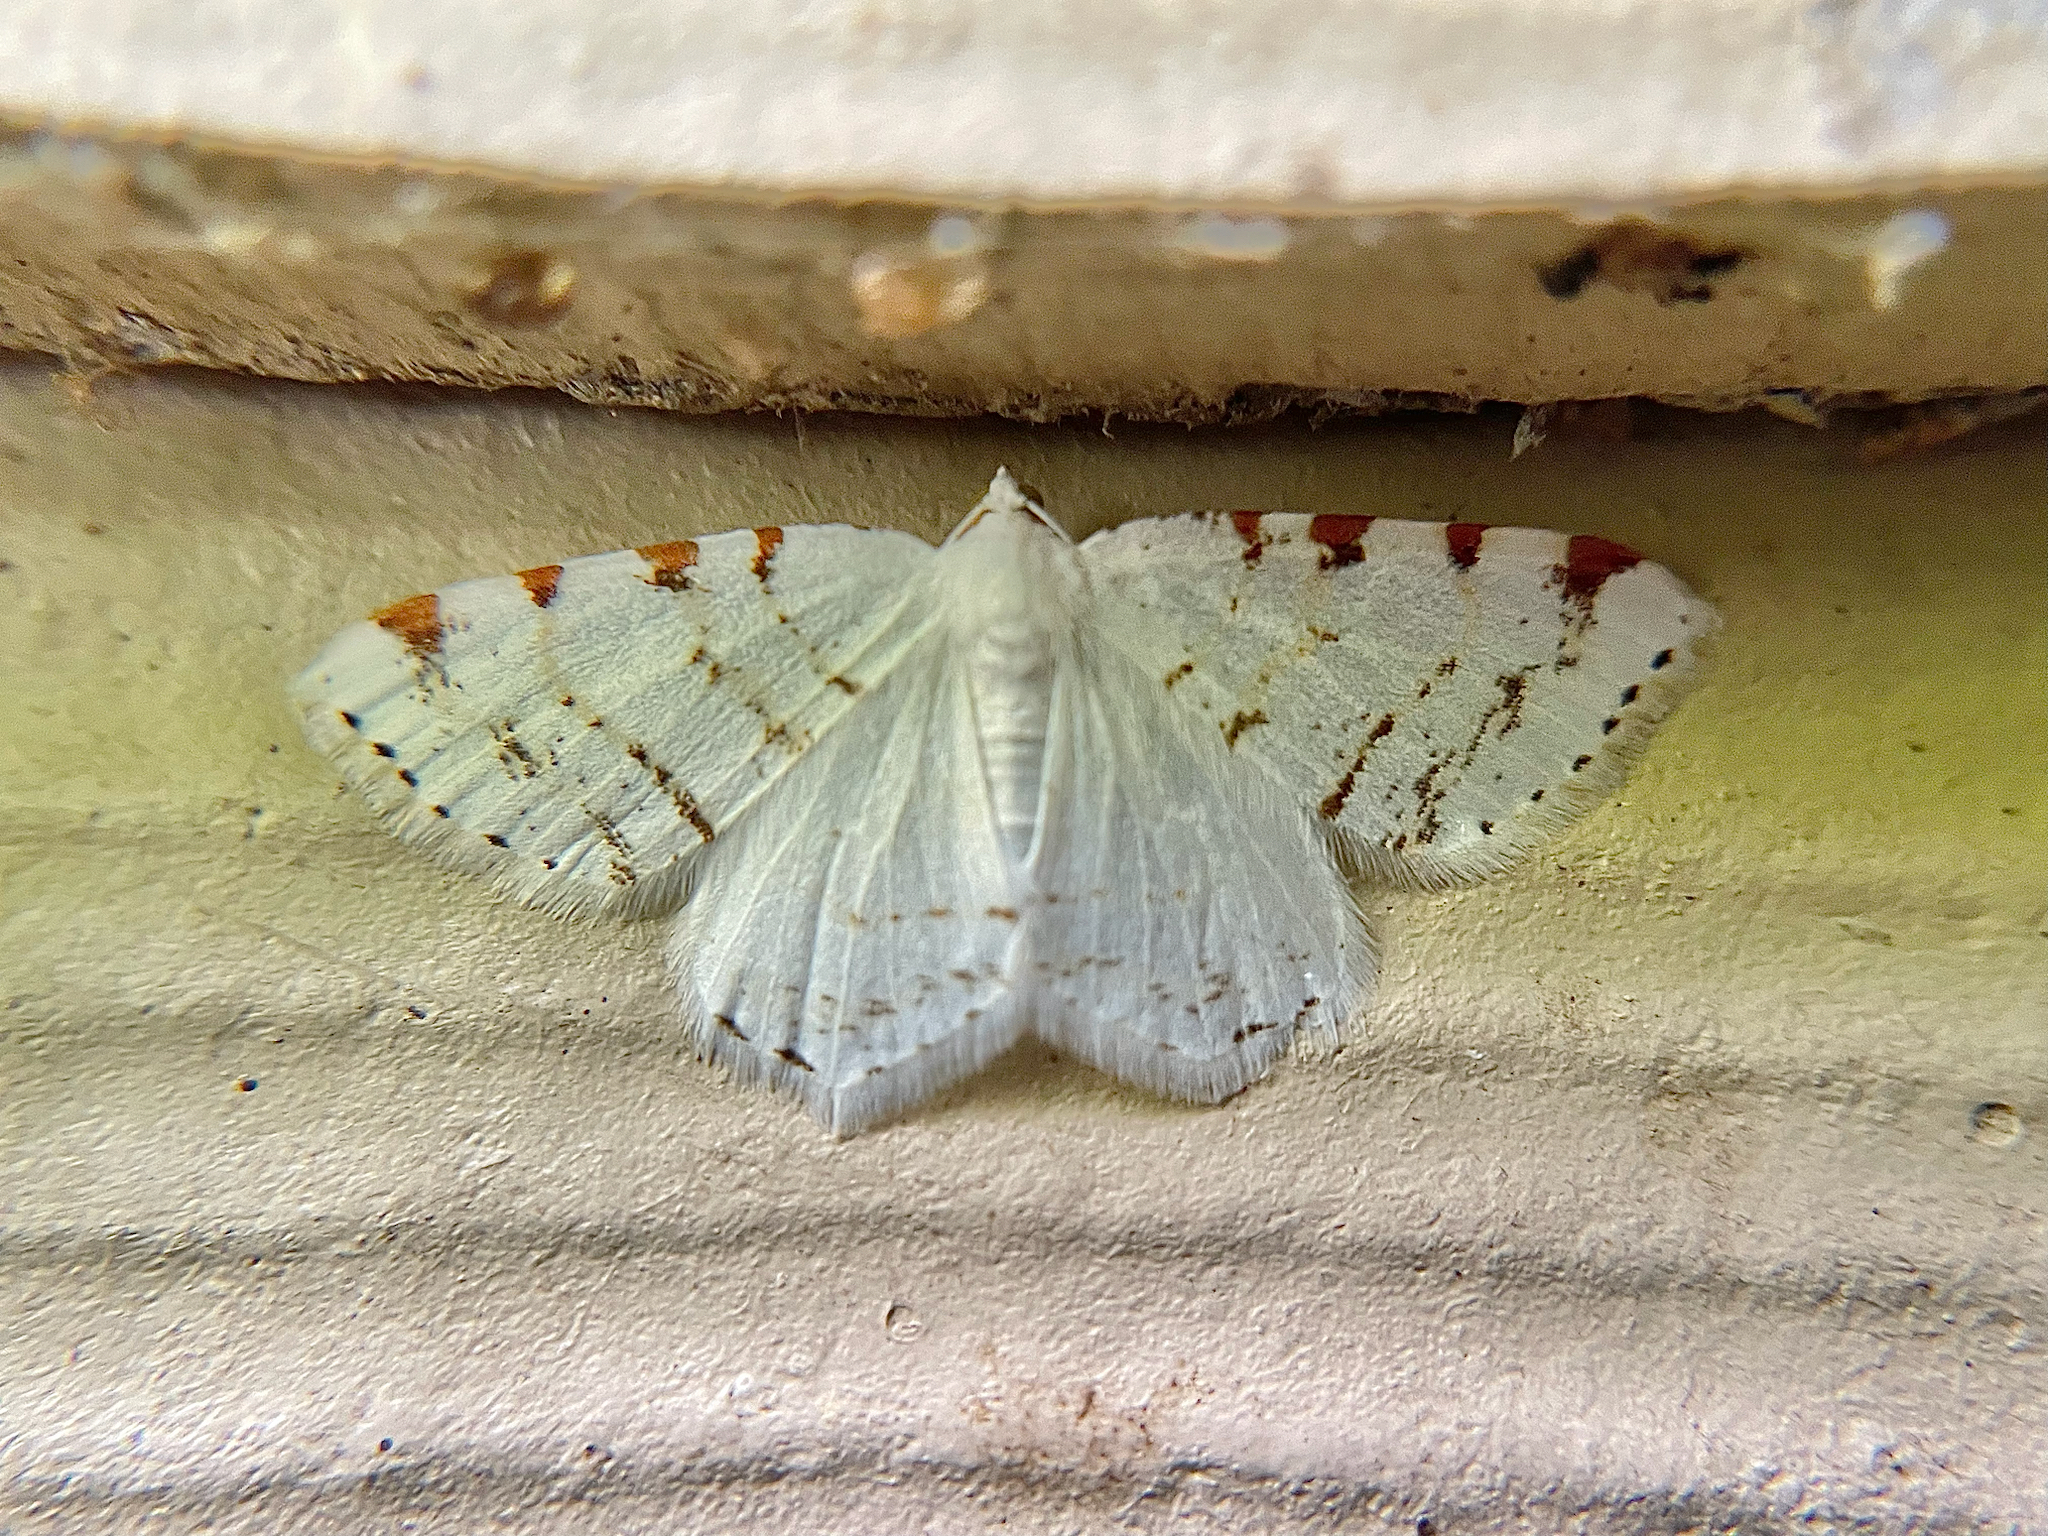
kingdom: Animalia
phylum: Arthropoda
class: Insecta
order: Lepidoptera
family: Geometridae
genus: Macaria
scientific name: Macaria pustularia
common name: Lesser maple spanworm moth
